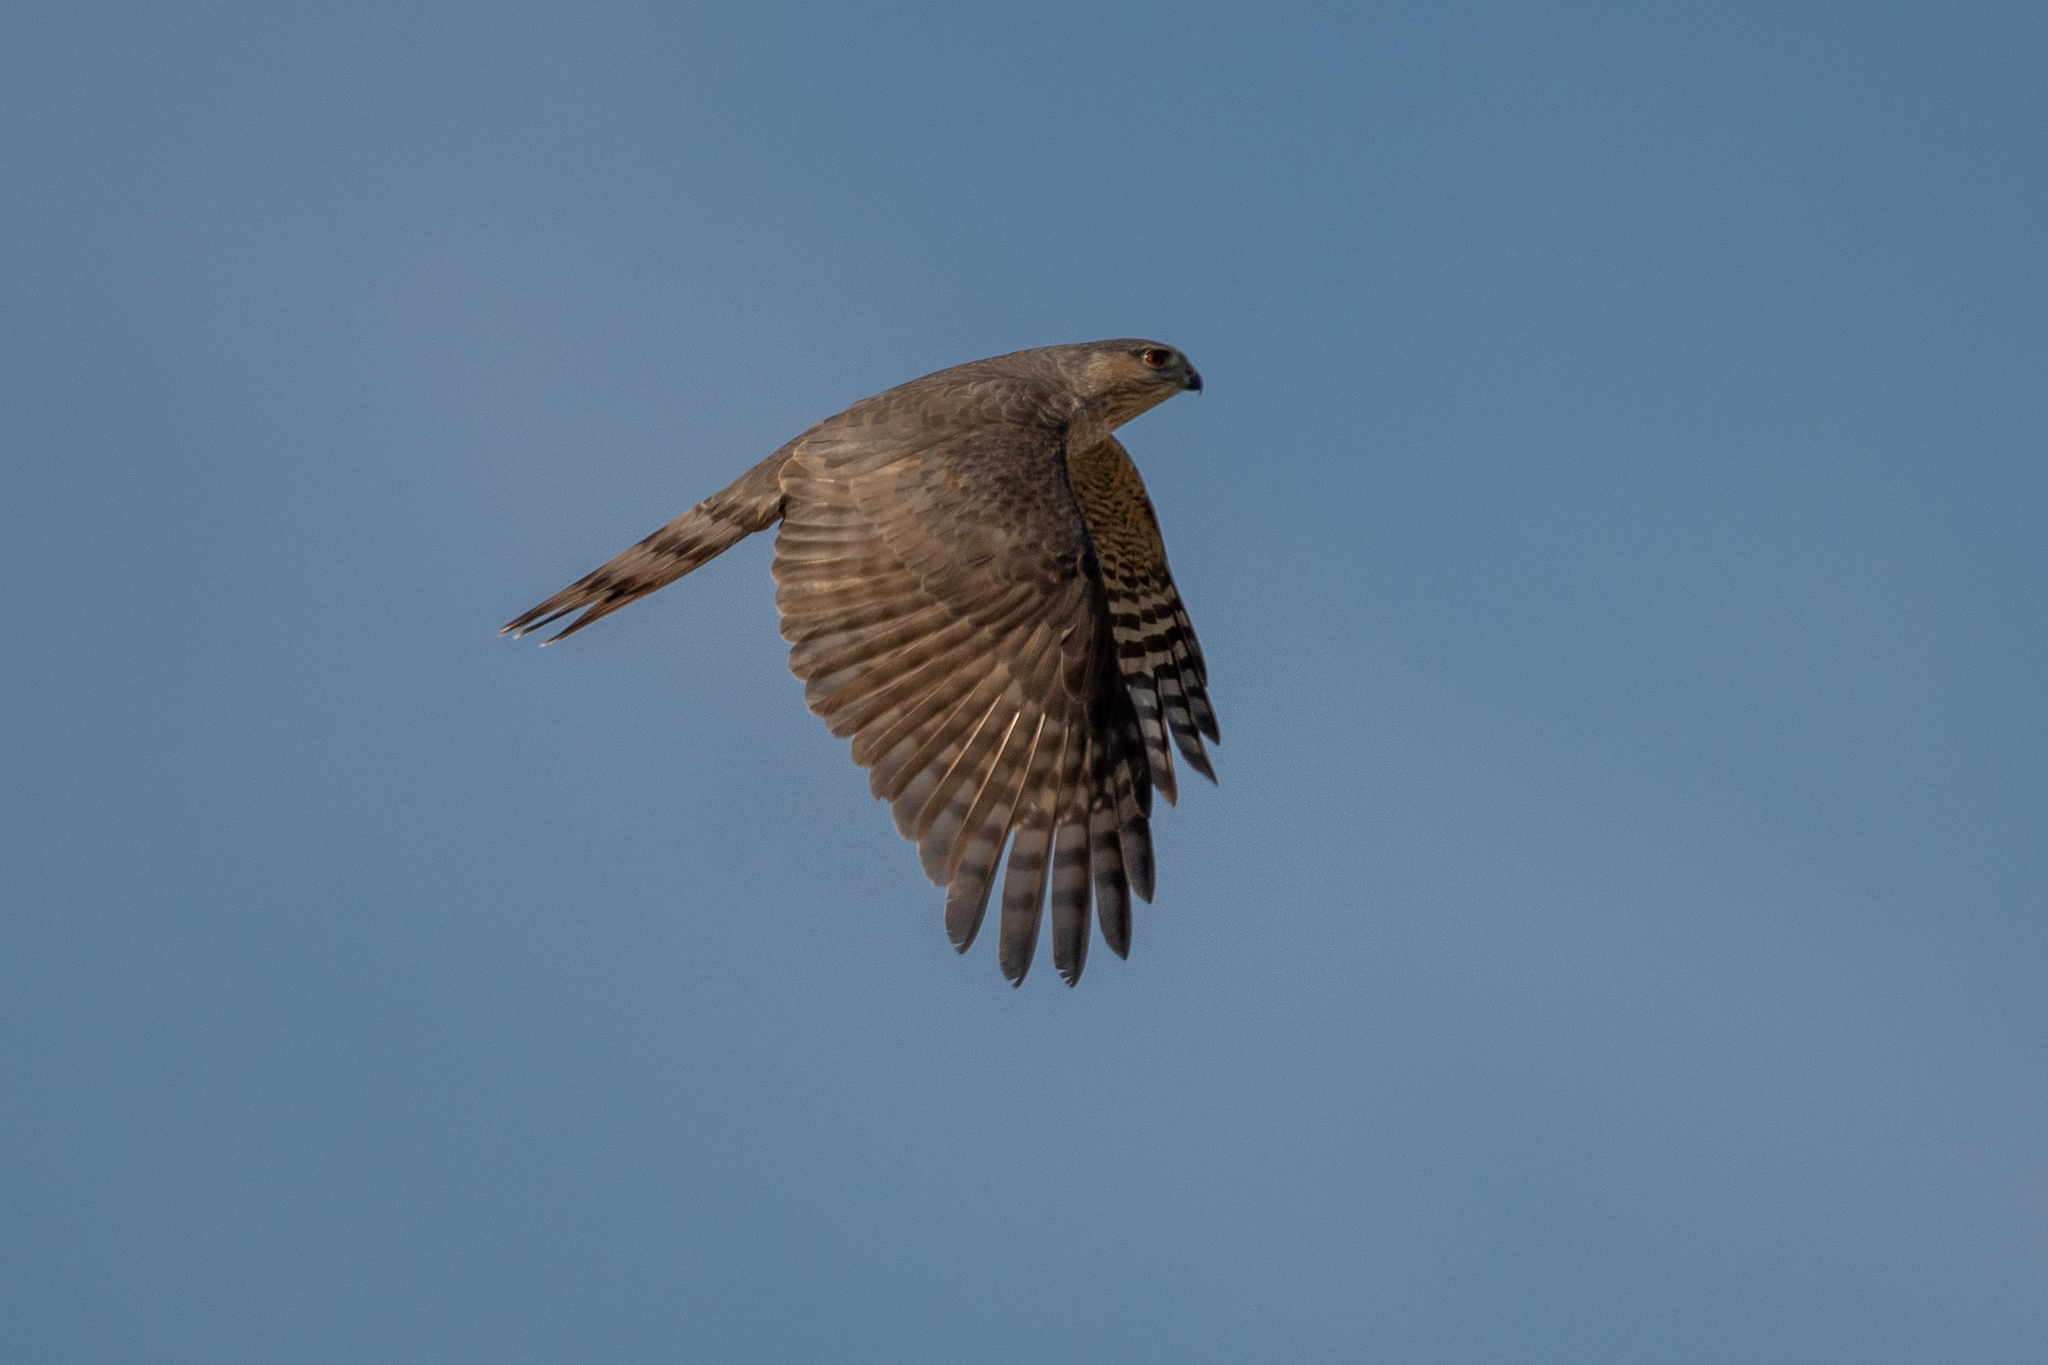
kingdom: Animalia
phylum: Chordata
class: Aves
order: Accipitriformes
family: Accipitridae
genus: Accipiter
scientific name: Accipiter striatus
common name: Sharp-shinned hawk
